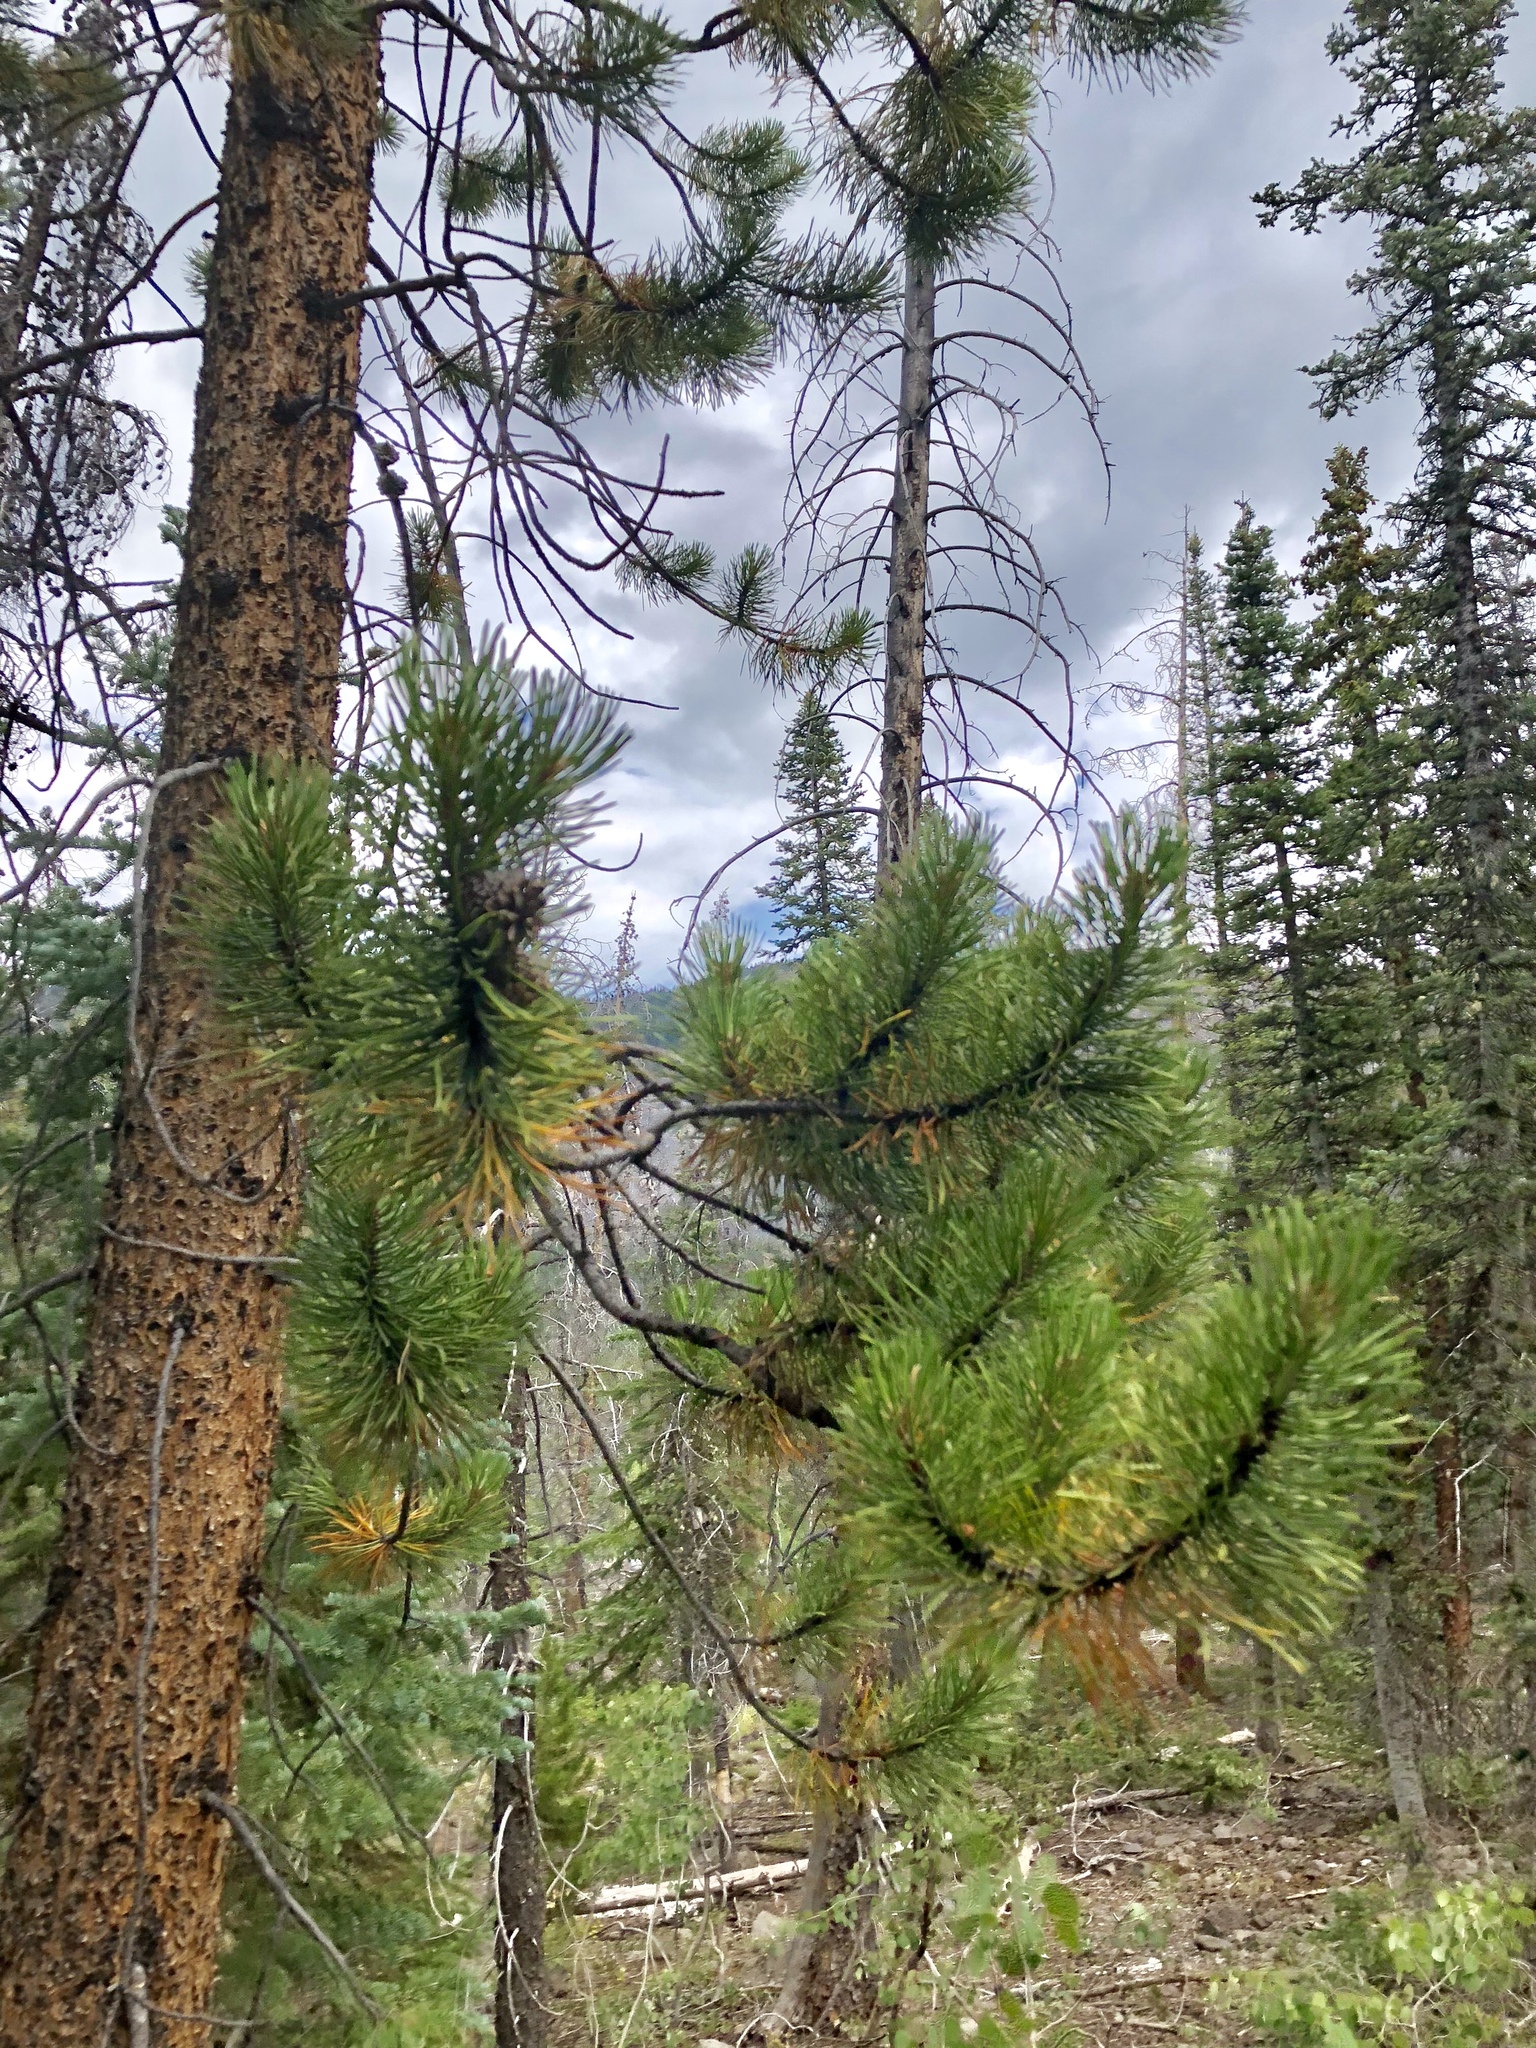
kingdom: Plantae
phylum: Tracheophyta
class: Pinopsida
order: Pinales
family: Pinaceae
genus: Pinus
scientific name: Pinus ponderosa
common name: Western yellow-pine
